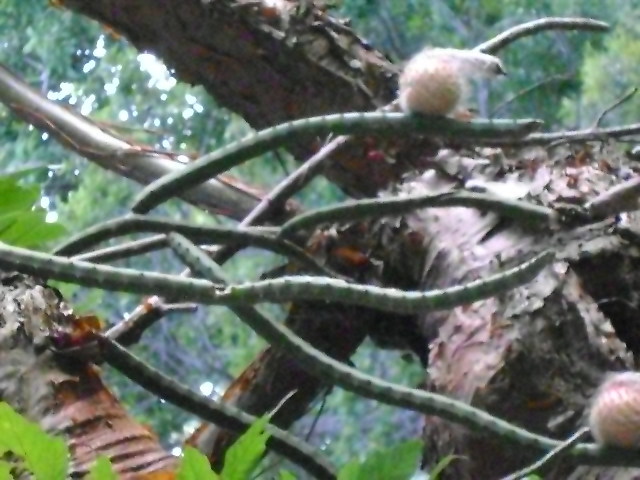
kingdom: Plantae
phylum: Tracheophyta
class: Magnoliopsida
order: Caryophyllales
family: Cactaceae
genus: Selenicereus
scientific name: Selenicereus pteranthus
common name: Princess of the night
